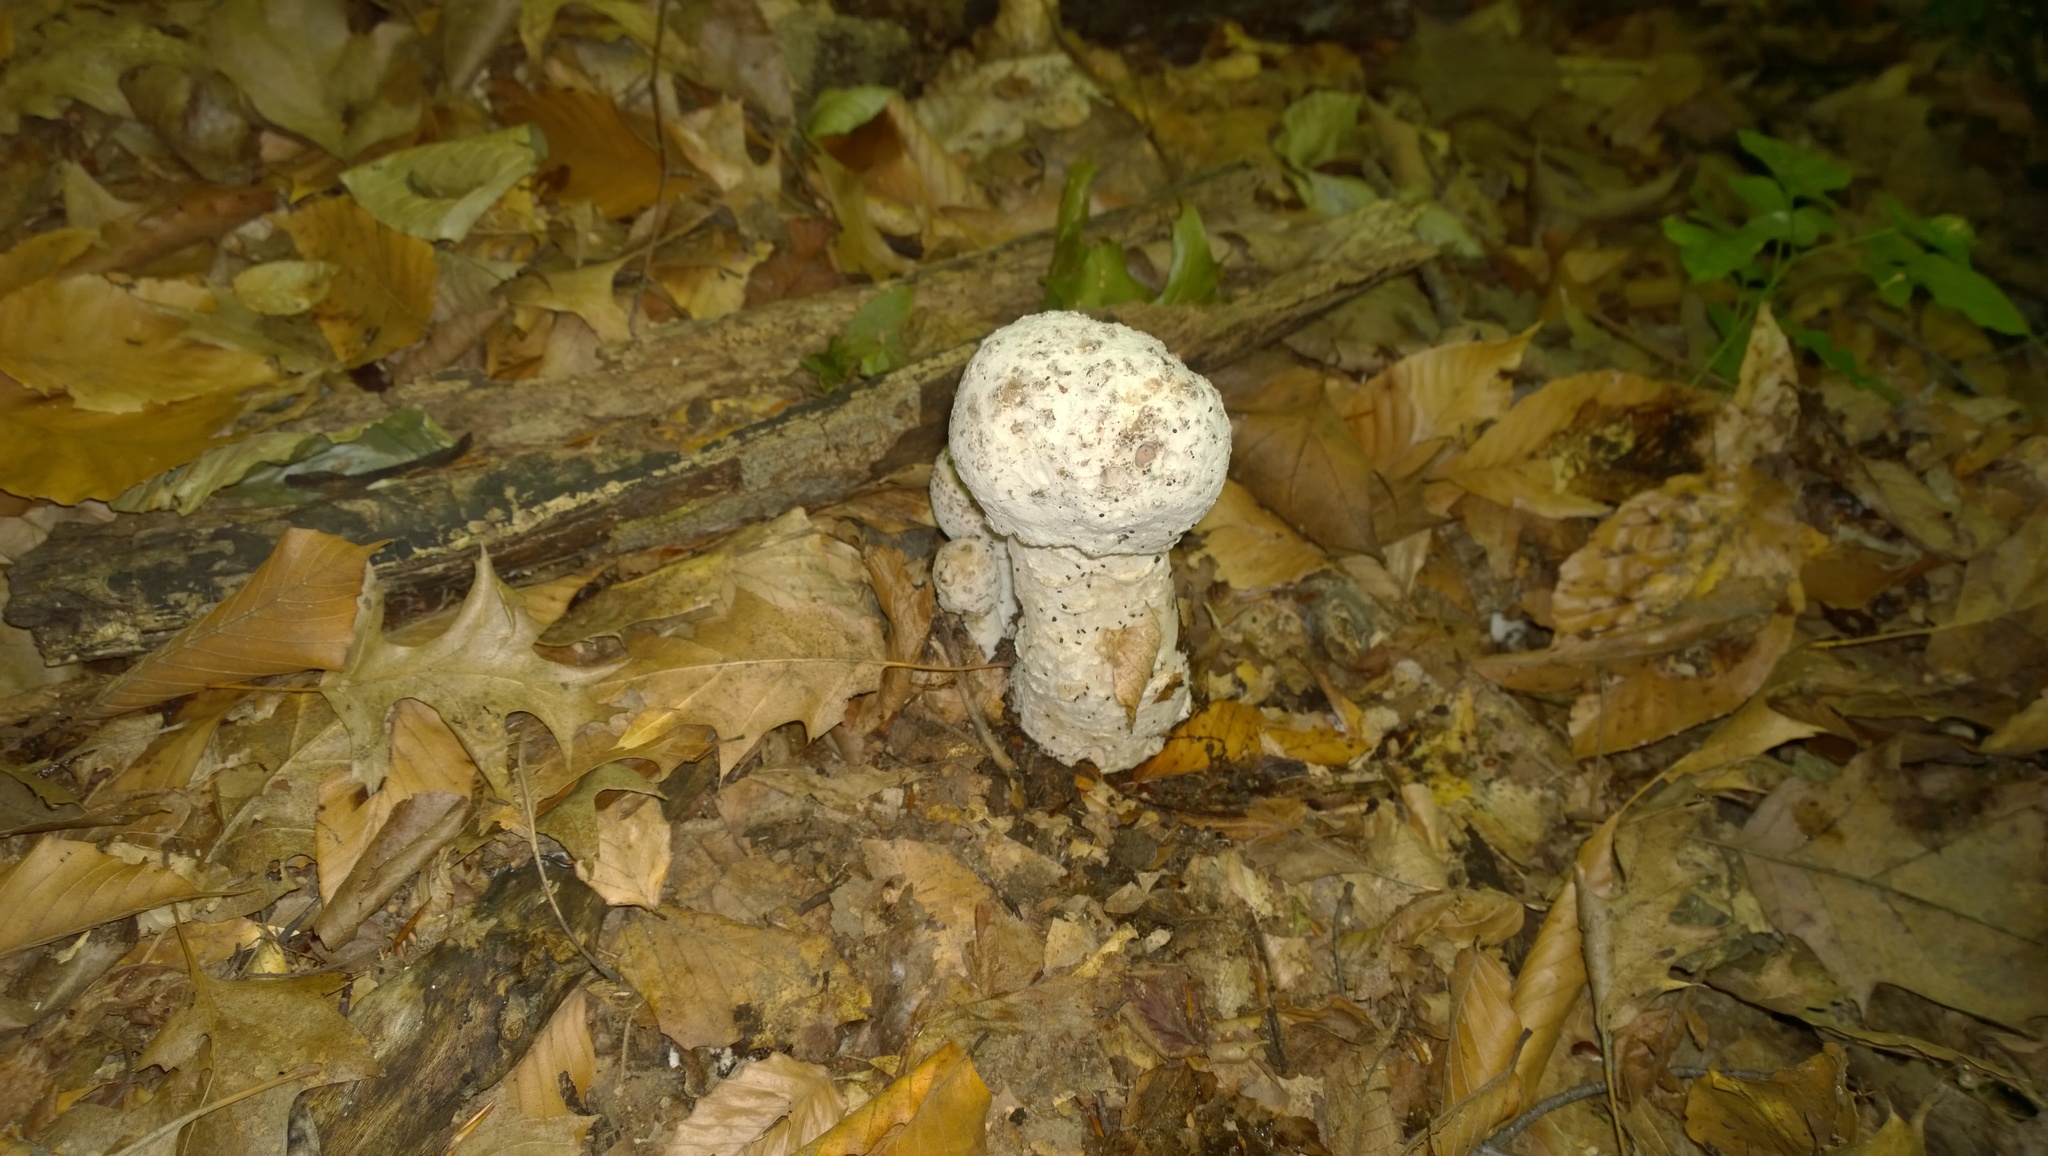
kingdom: Fungi
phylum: Ascomycota
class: Sordariomycetes
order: Hypocreales
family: Hypocreaceae
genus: Hypomyces
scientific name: Hypomyces hyalinus
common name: Amanita mold
